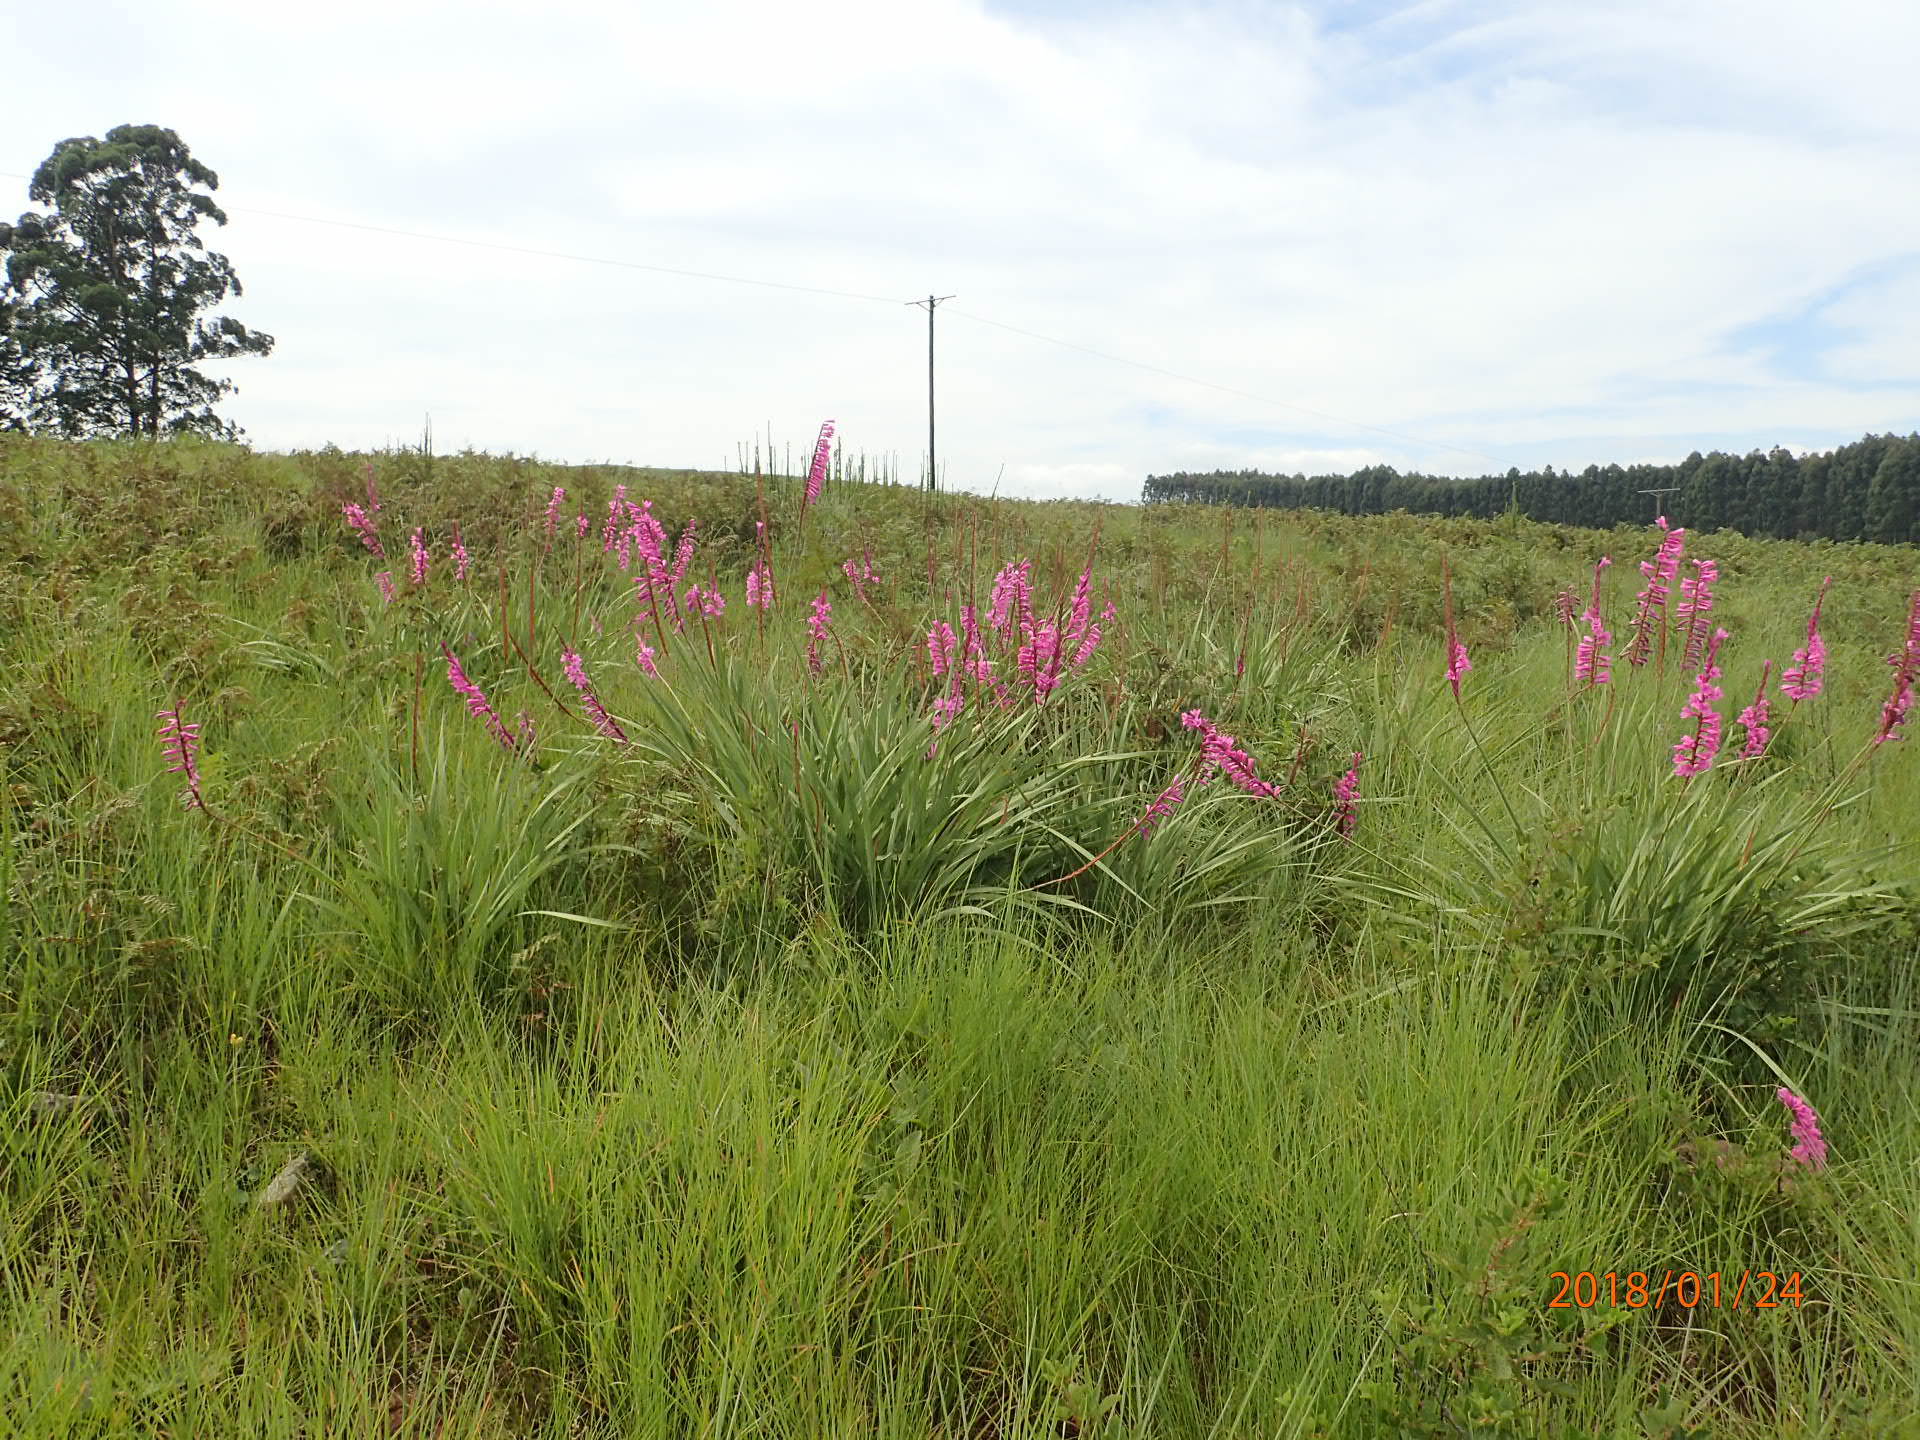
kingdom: Plantae
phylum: Tracheophyta
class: Liliopsida
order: Asparagales
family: Iridaceae
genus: Watsonia
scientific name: Watsonia densiflora
